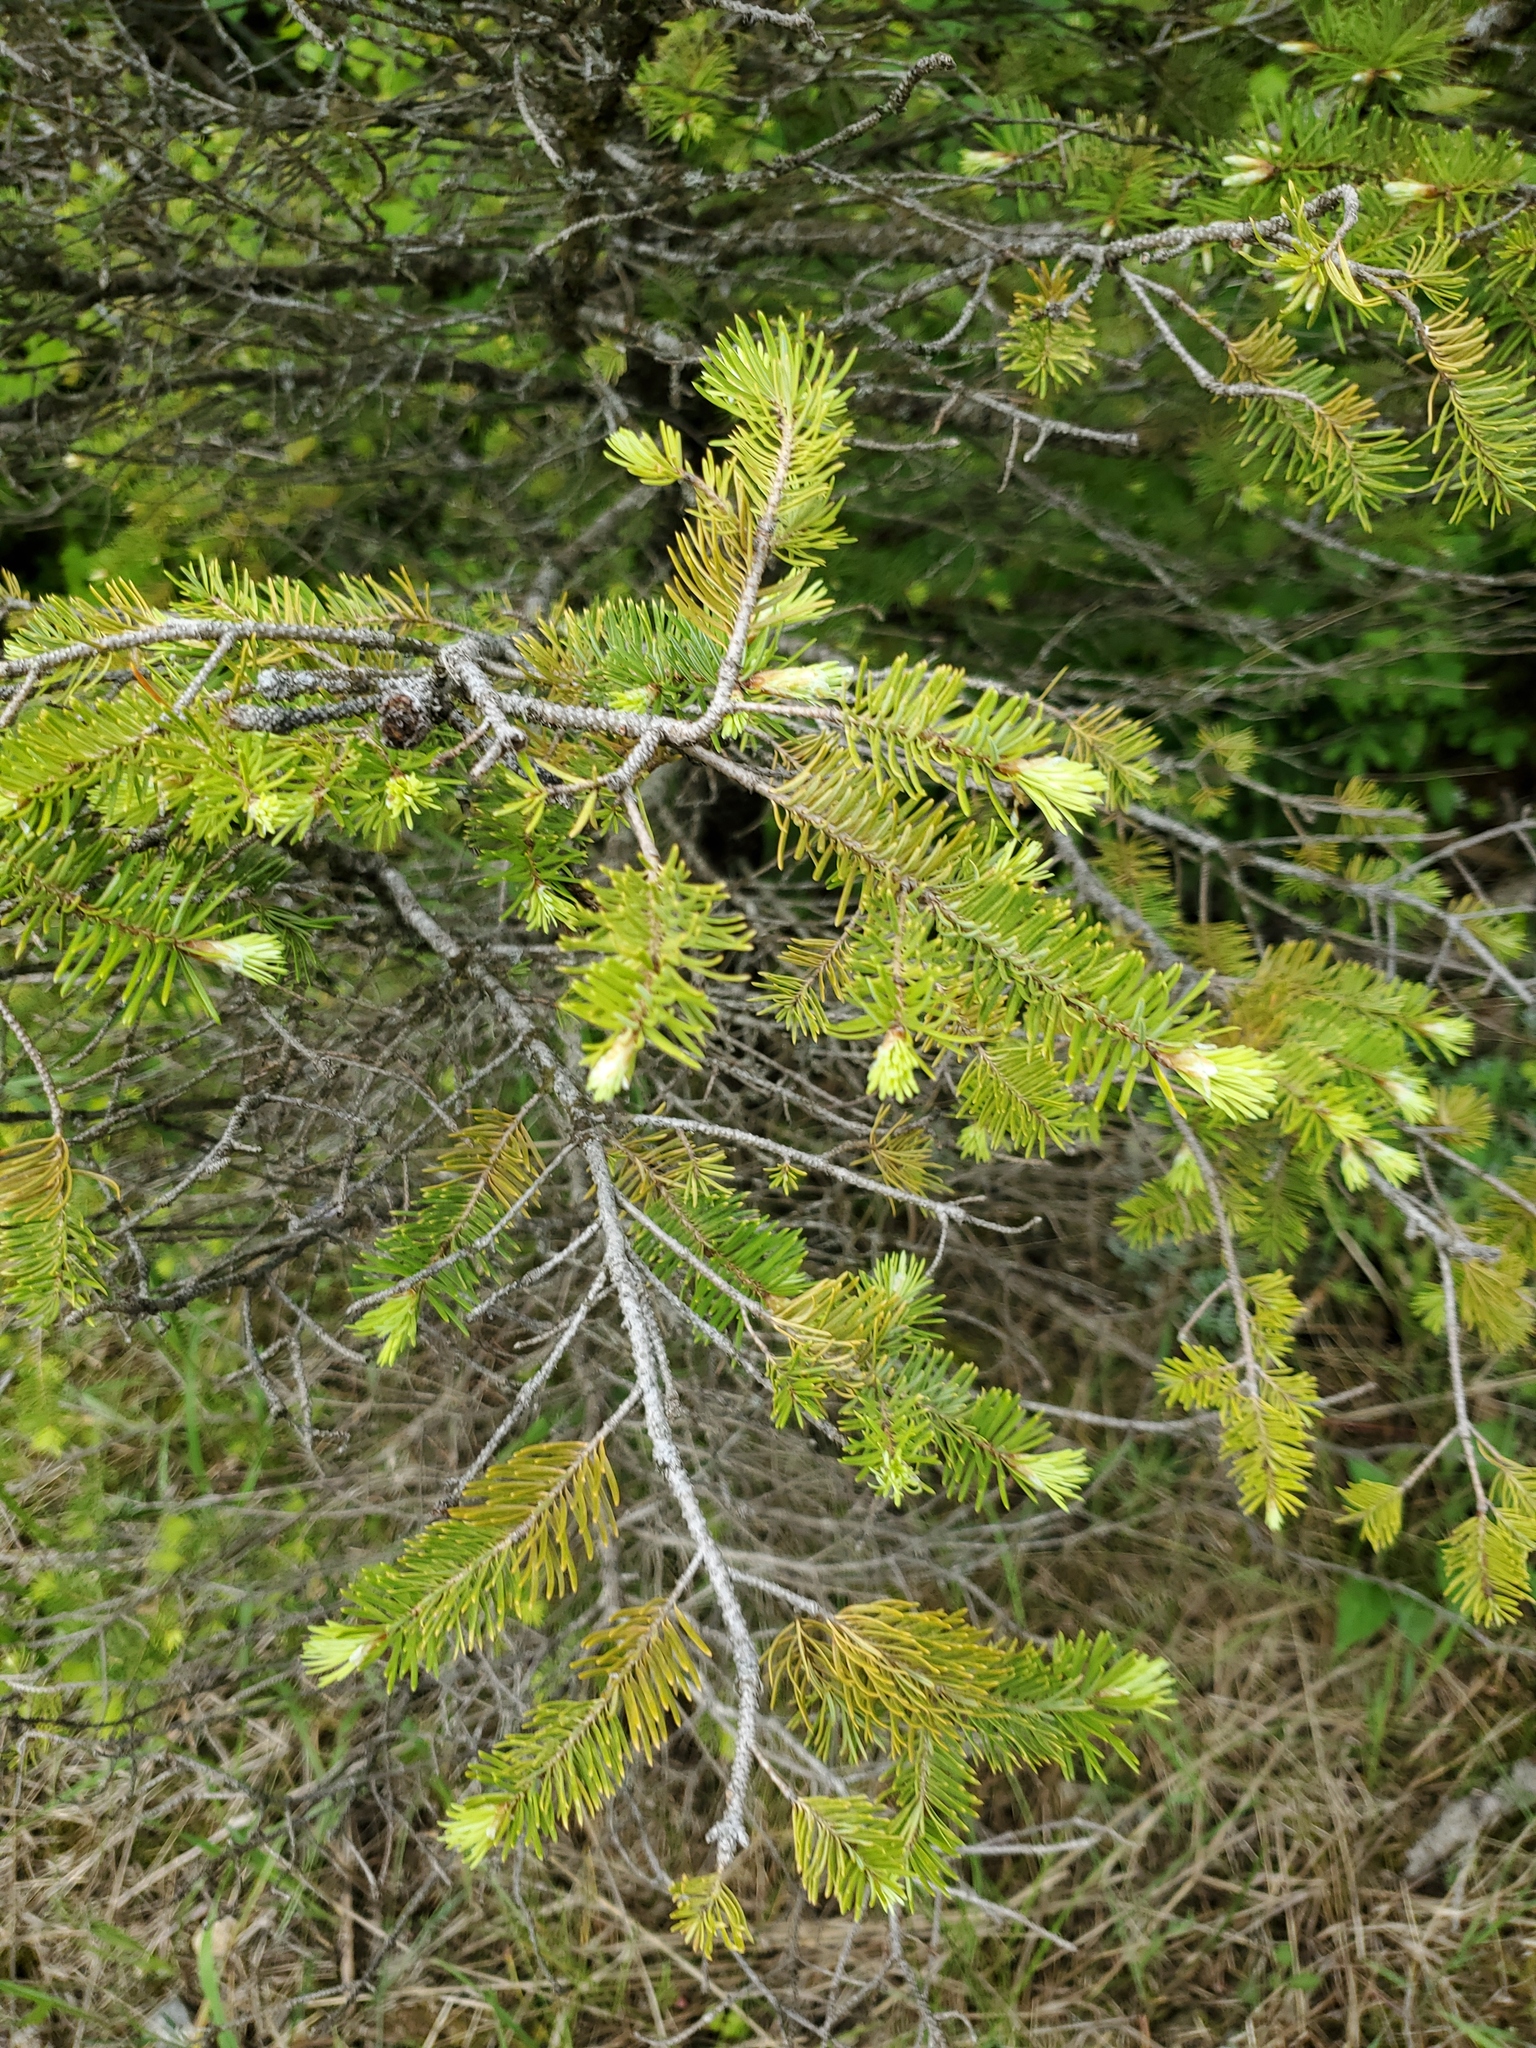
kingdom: Plantae
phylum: Tracheophyta
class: Pinopsida
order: Pinales
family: Pinaceae
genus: Pseudotsuga
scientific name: Pseudotsuga menziesii
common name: Douglas fir
